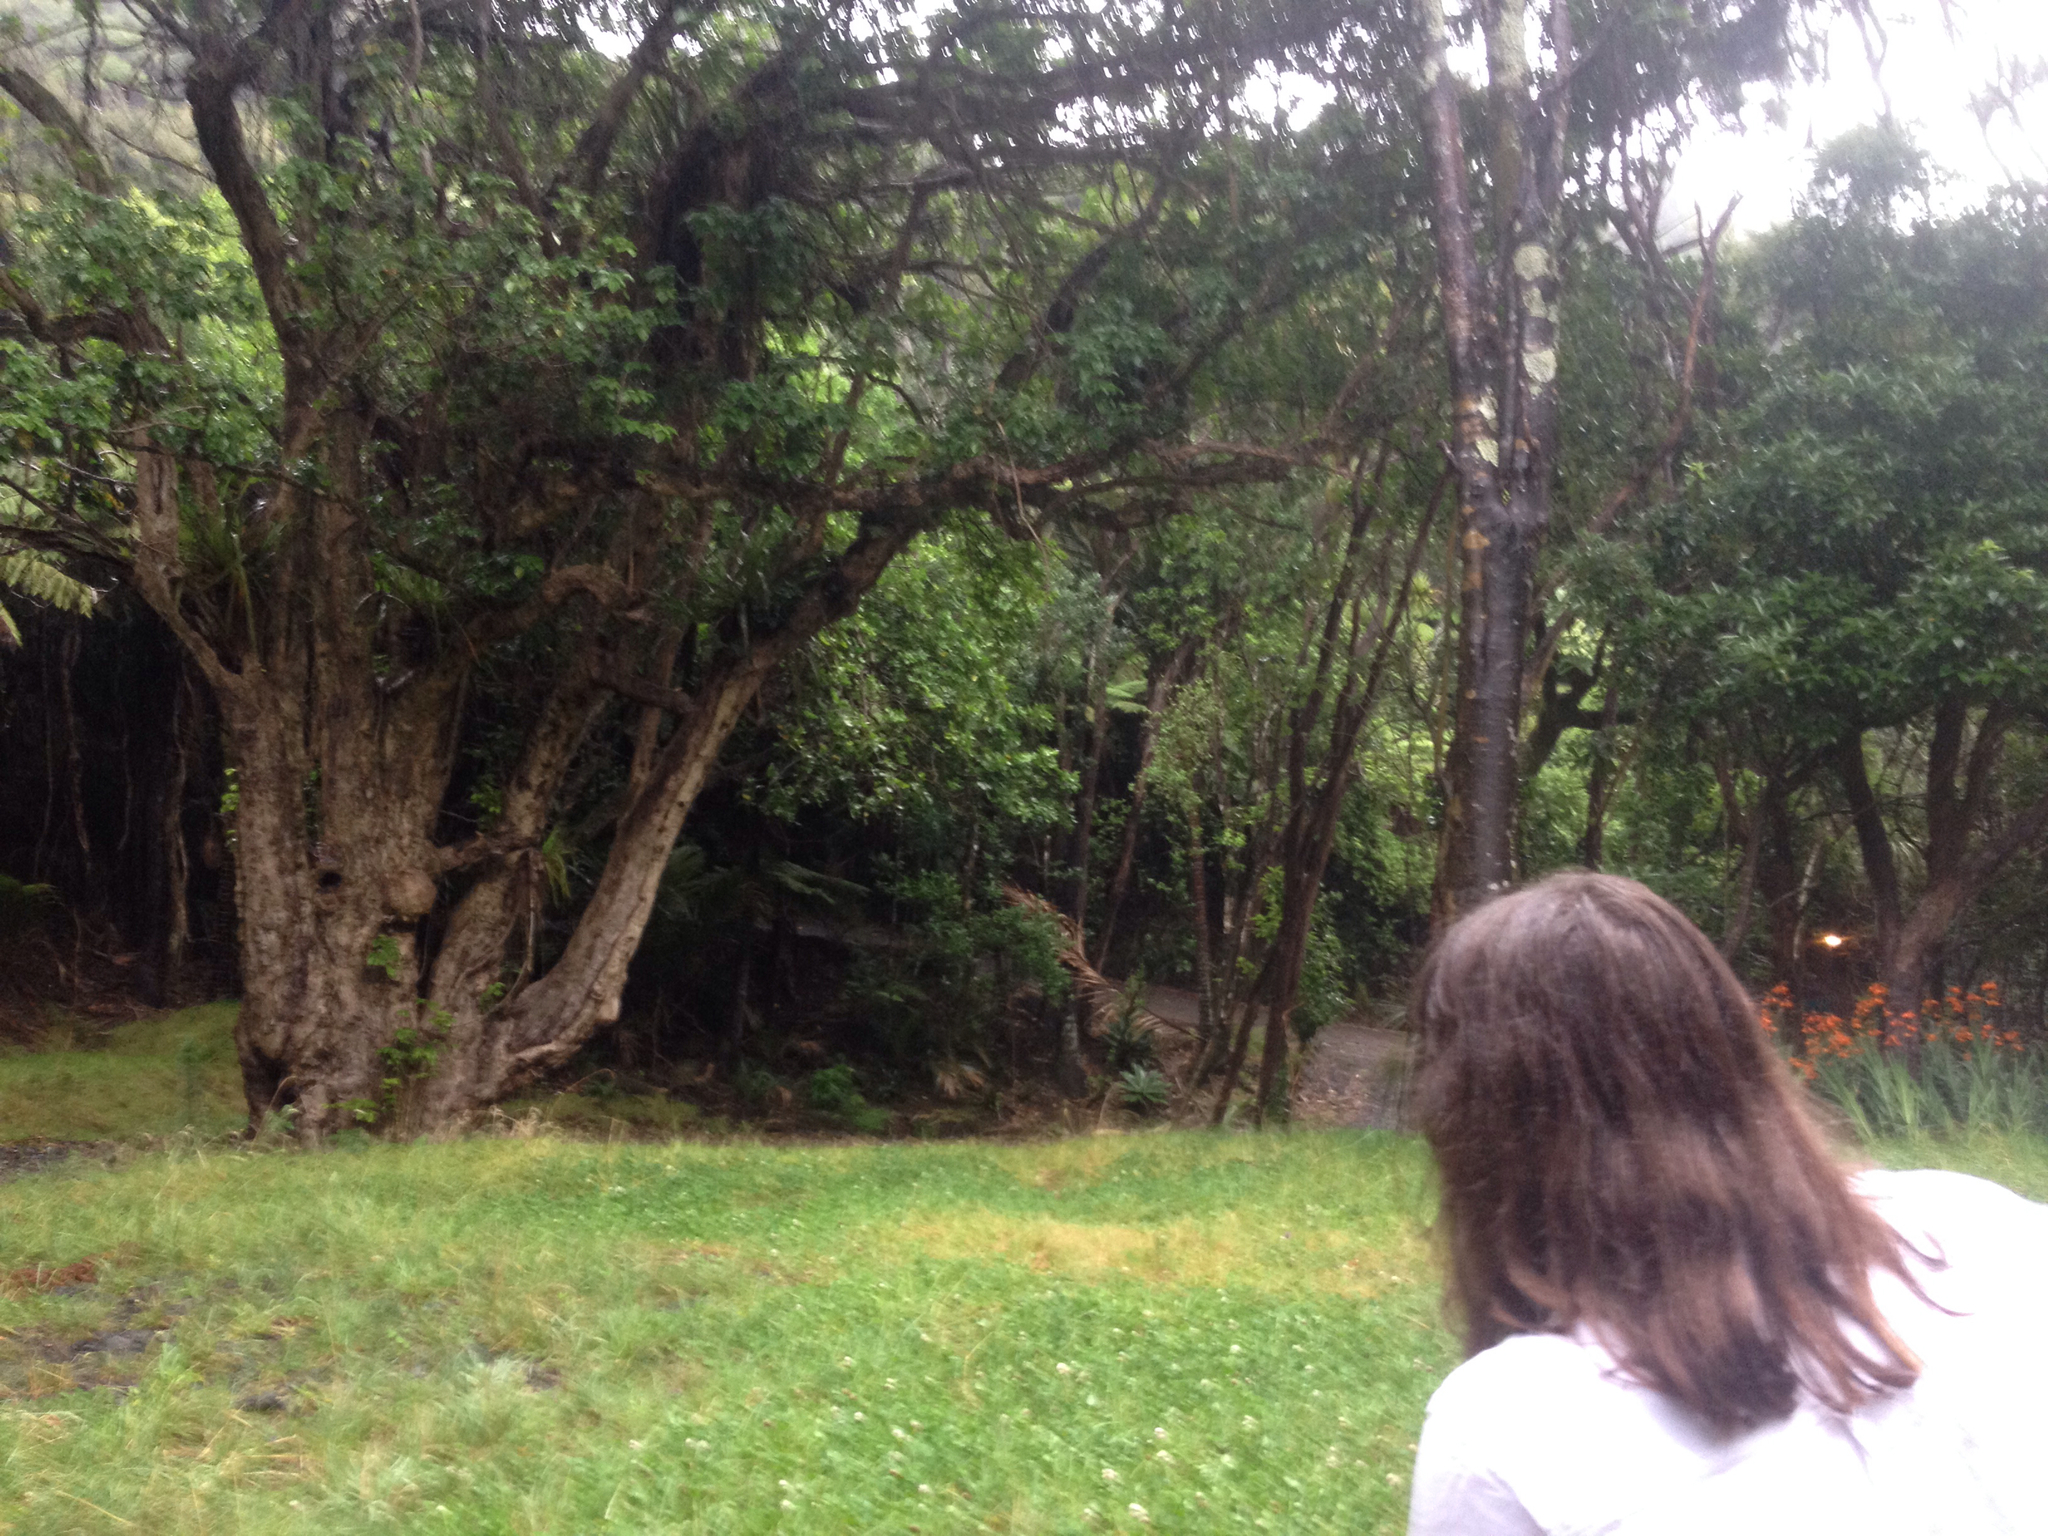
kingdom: Plantae
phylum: Tracheophyta
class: Magnoliopsida
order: Lamiales
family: Lamiaceae
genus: Vitex
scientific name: Vitex lucens
